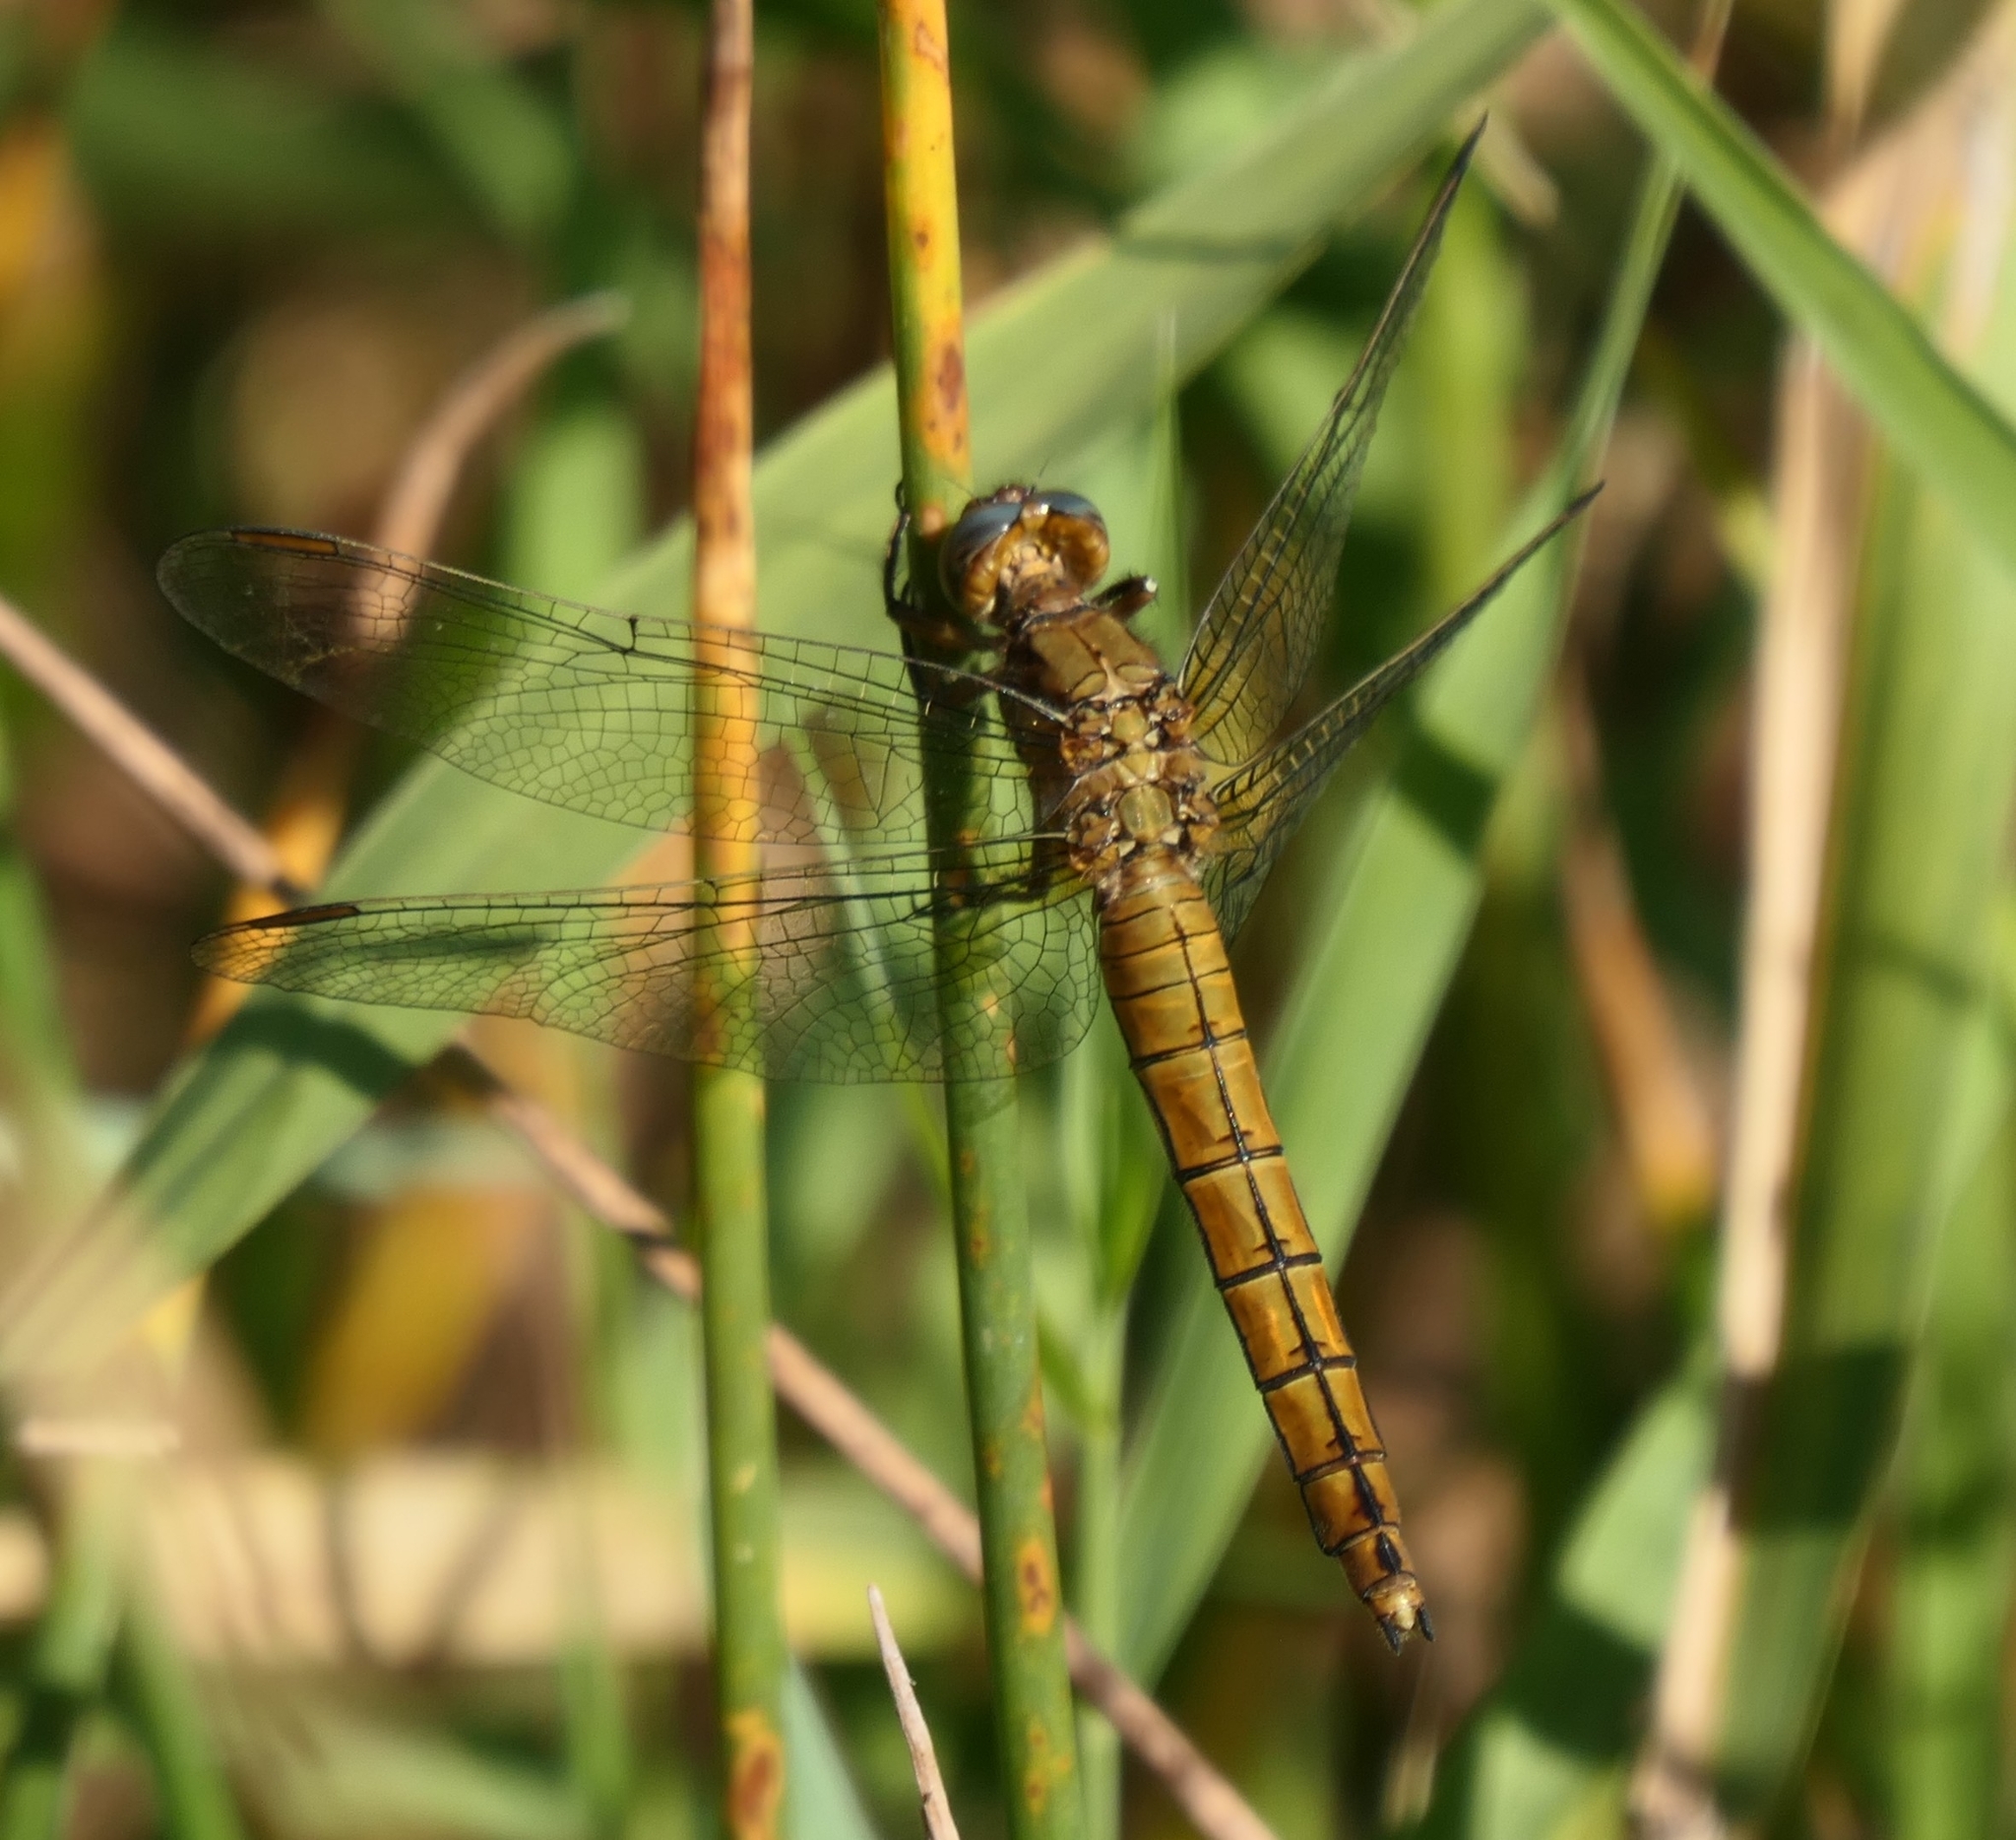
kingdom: Animalia
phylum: Arthropoda
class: Insecta
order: Odonata
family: Libellulidae
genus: Orthetrum
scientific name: Orthetrum coerulescens
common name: Keeled skimmer
